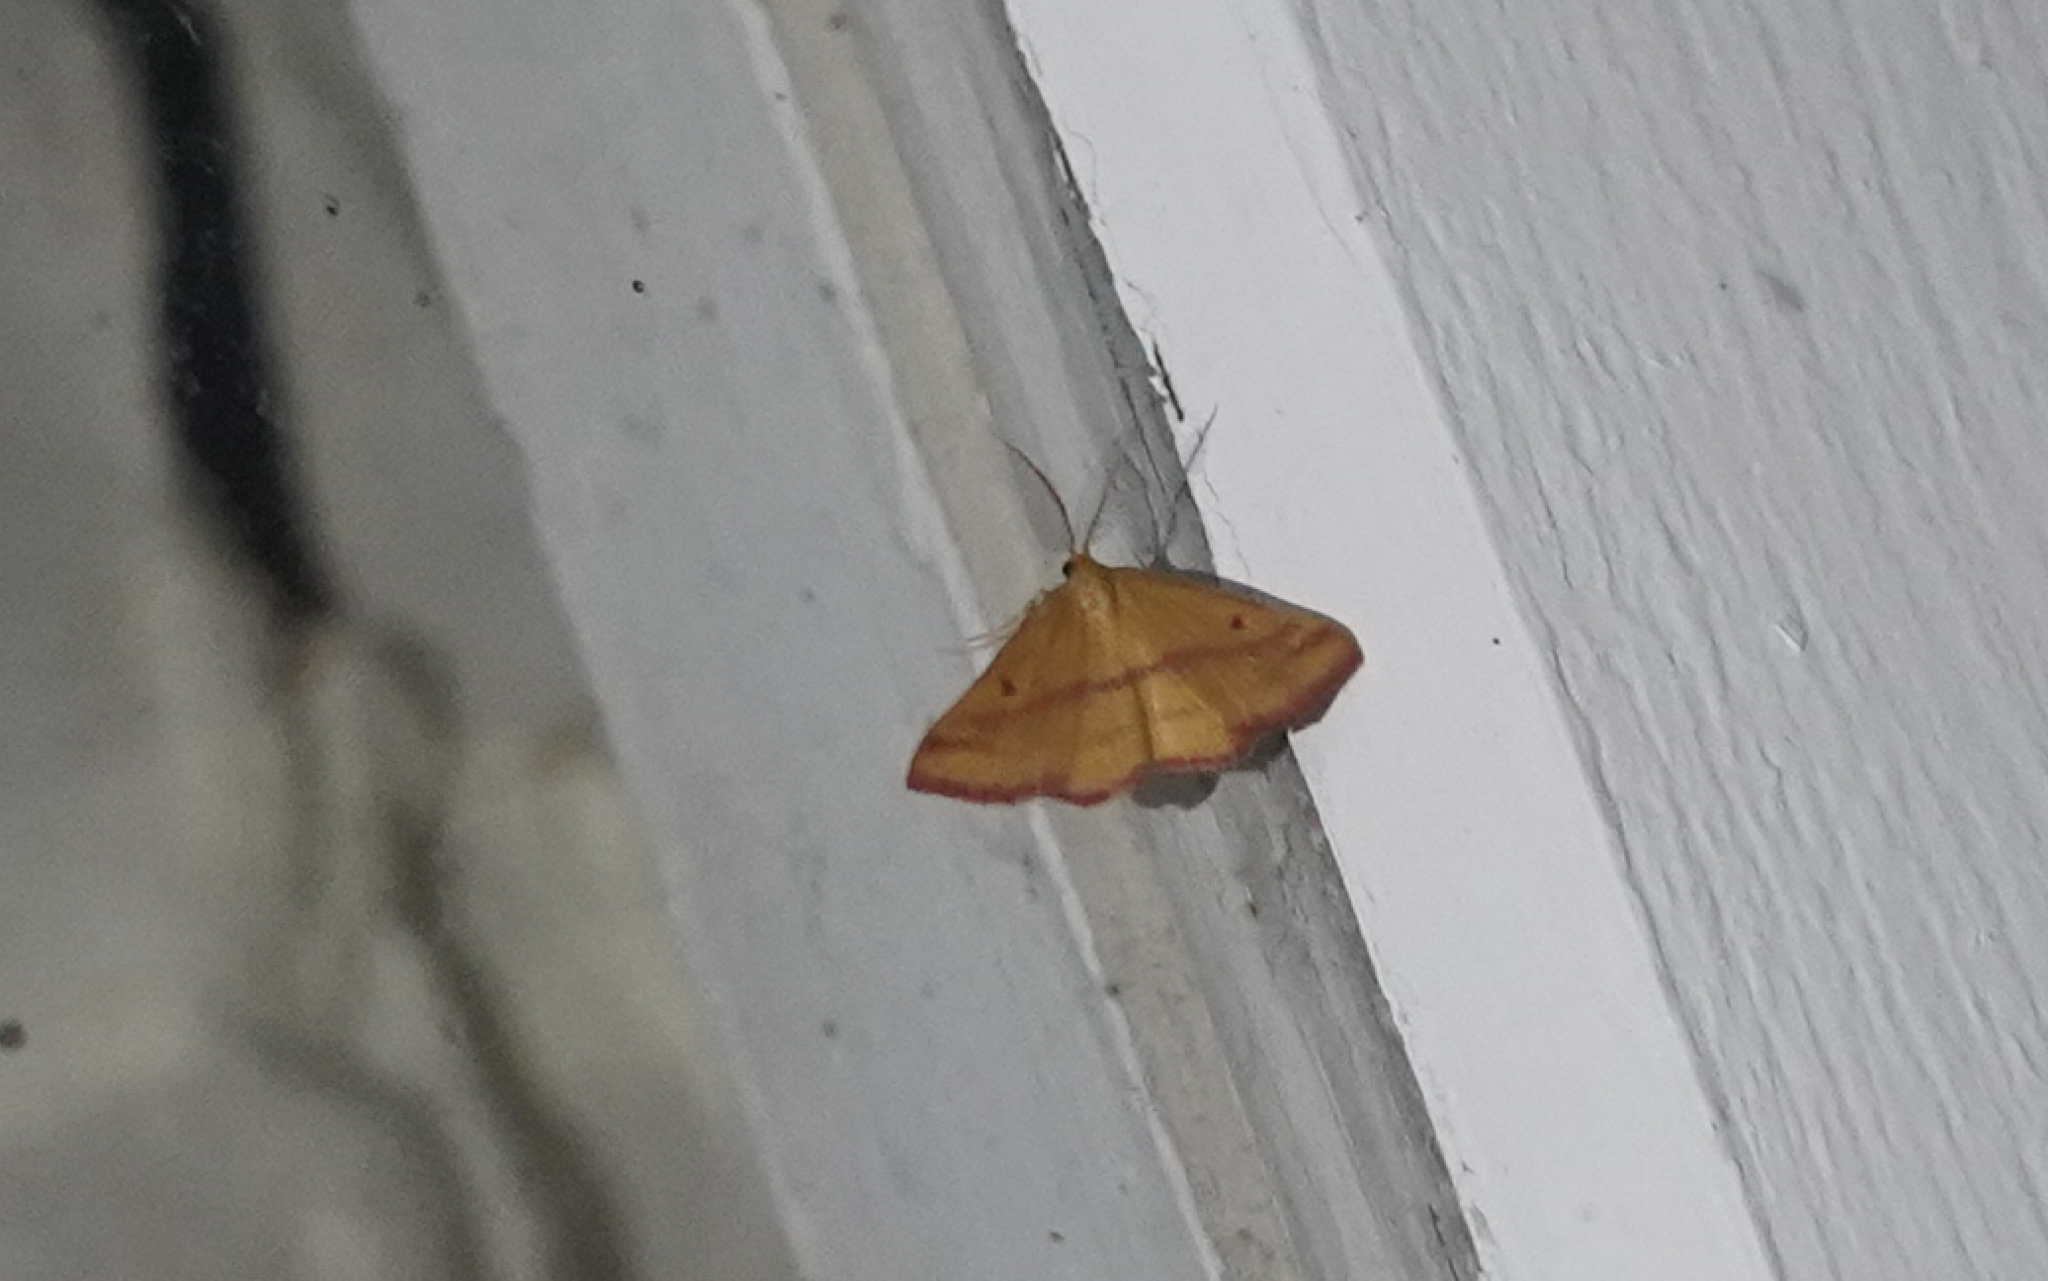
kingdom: Animalia
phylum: Arthropoda
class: Insecta
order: Lepidoptera
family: Geometridae
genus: Haematopis
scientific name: Haematopis grataria
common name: Chickweed geometer
